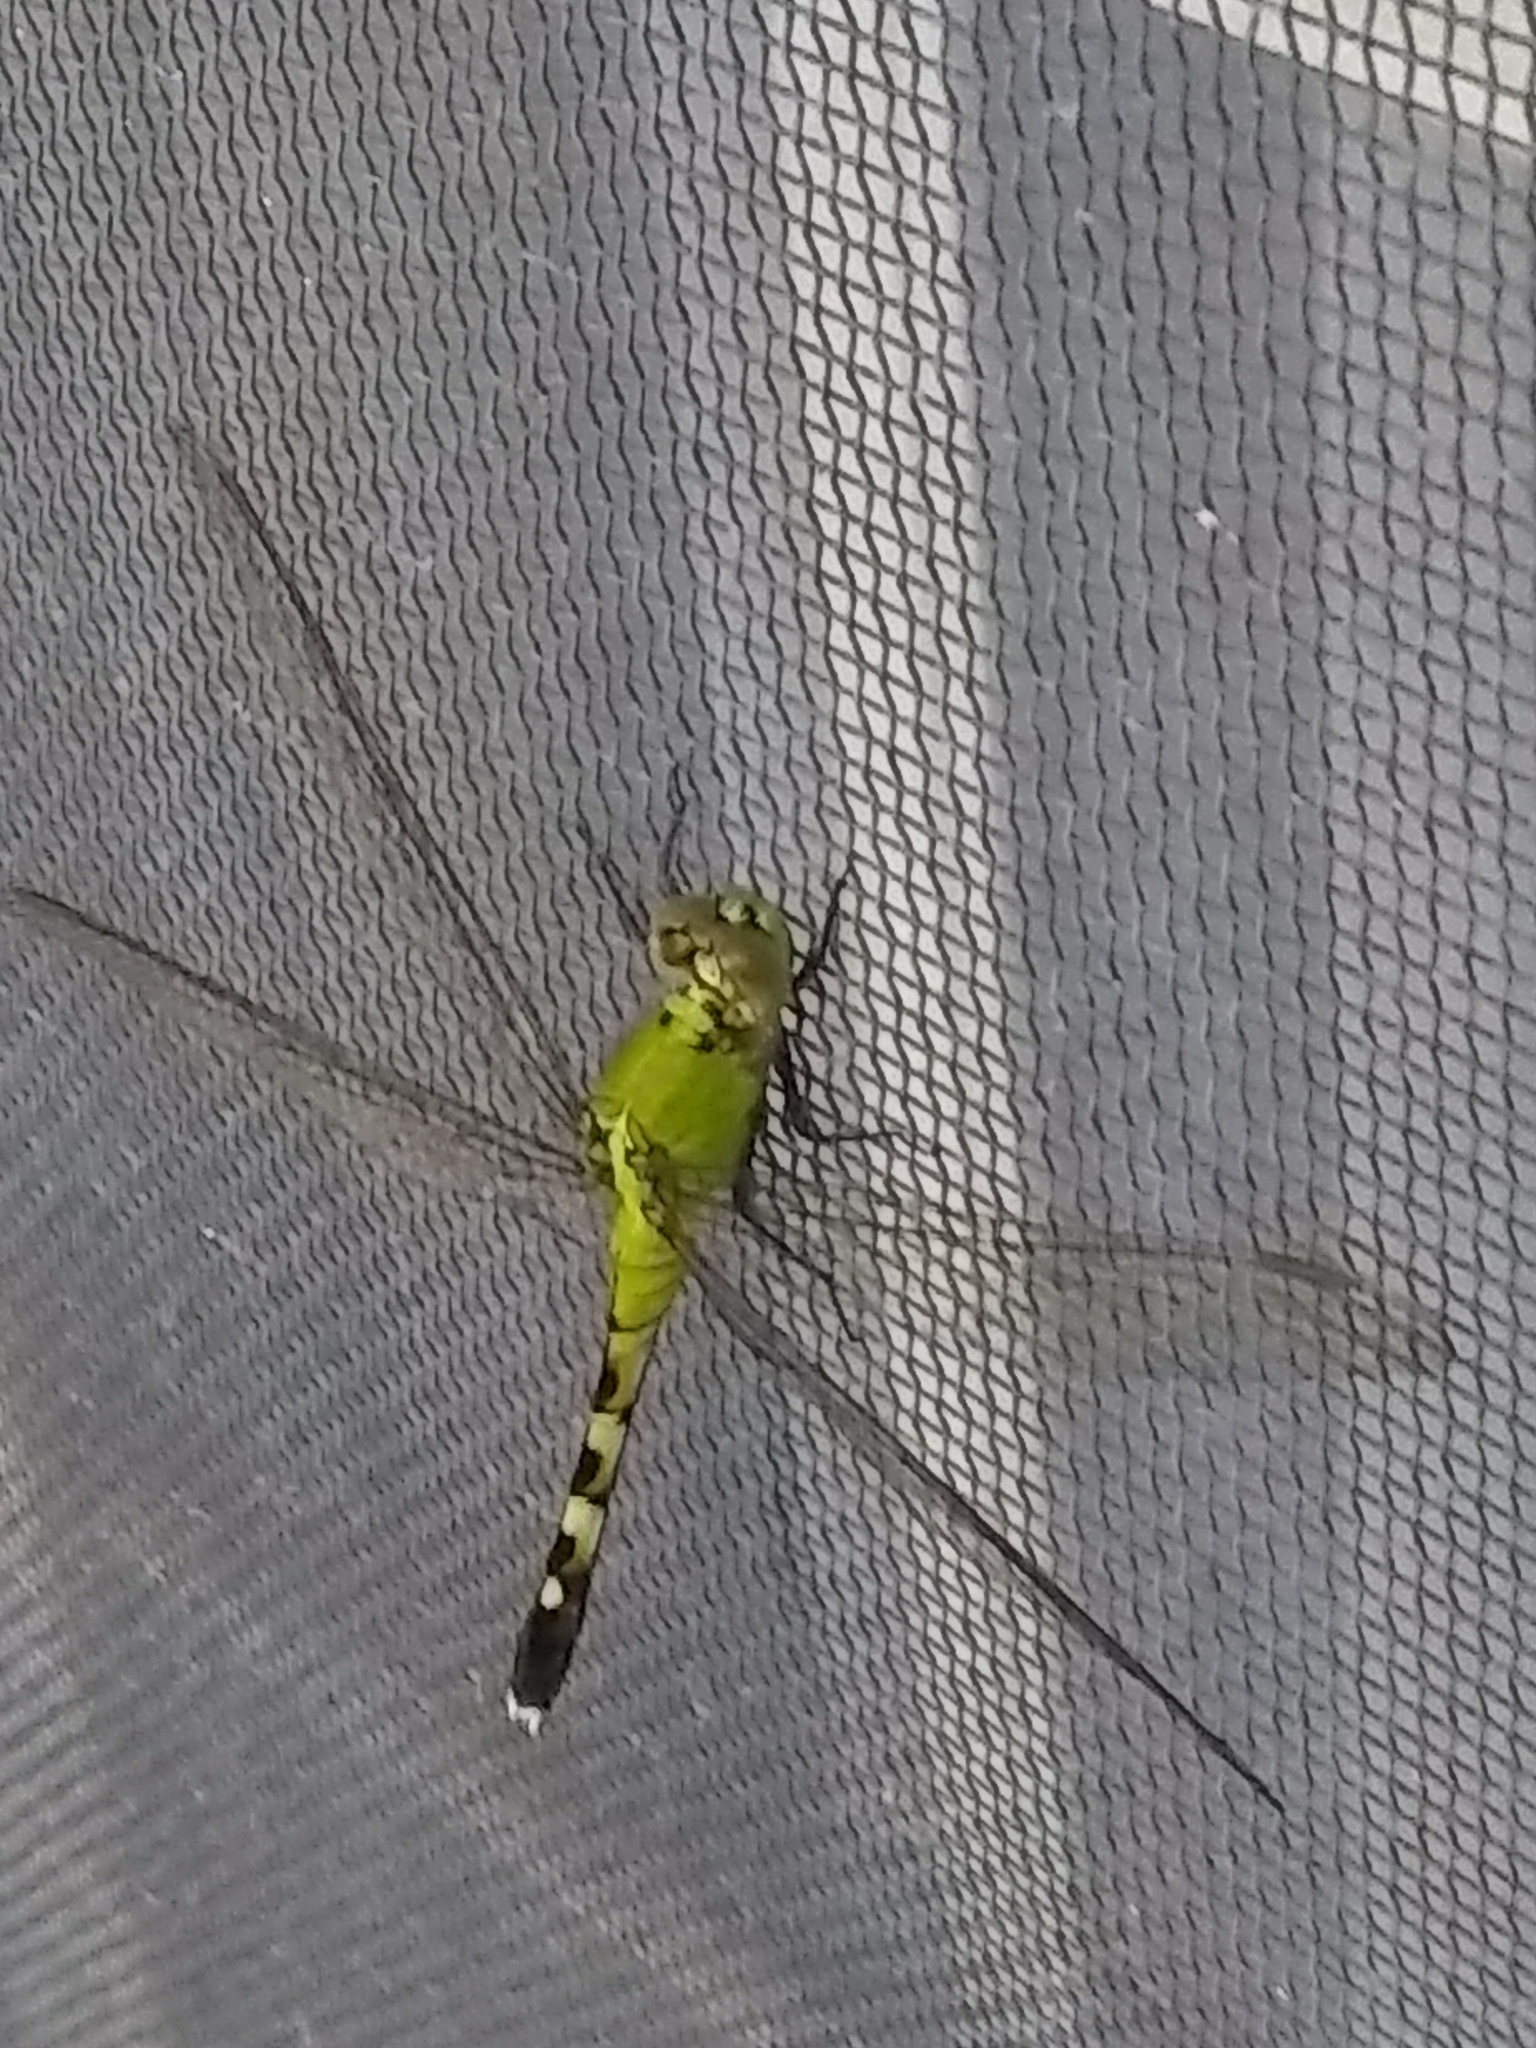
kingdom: Animalia
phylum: Arthropoda
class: Insecta
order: Odonata
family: Libellulidae
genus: Erythemis
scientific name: Erythemis simplicicollis
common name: Eastern pondhawk
